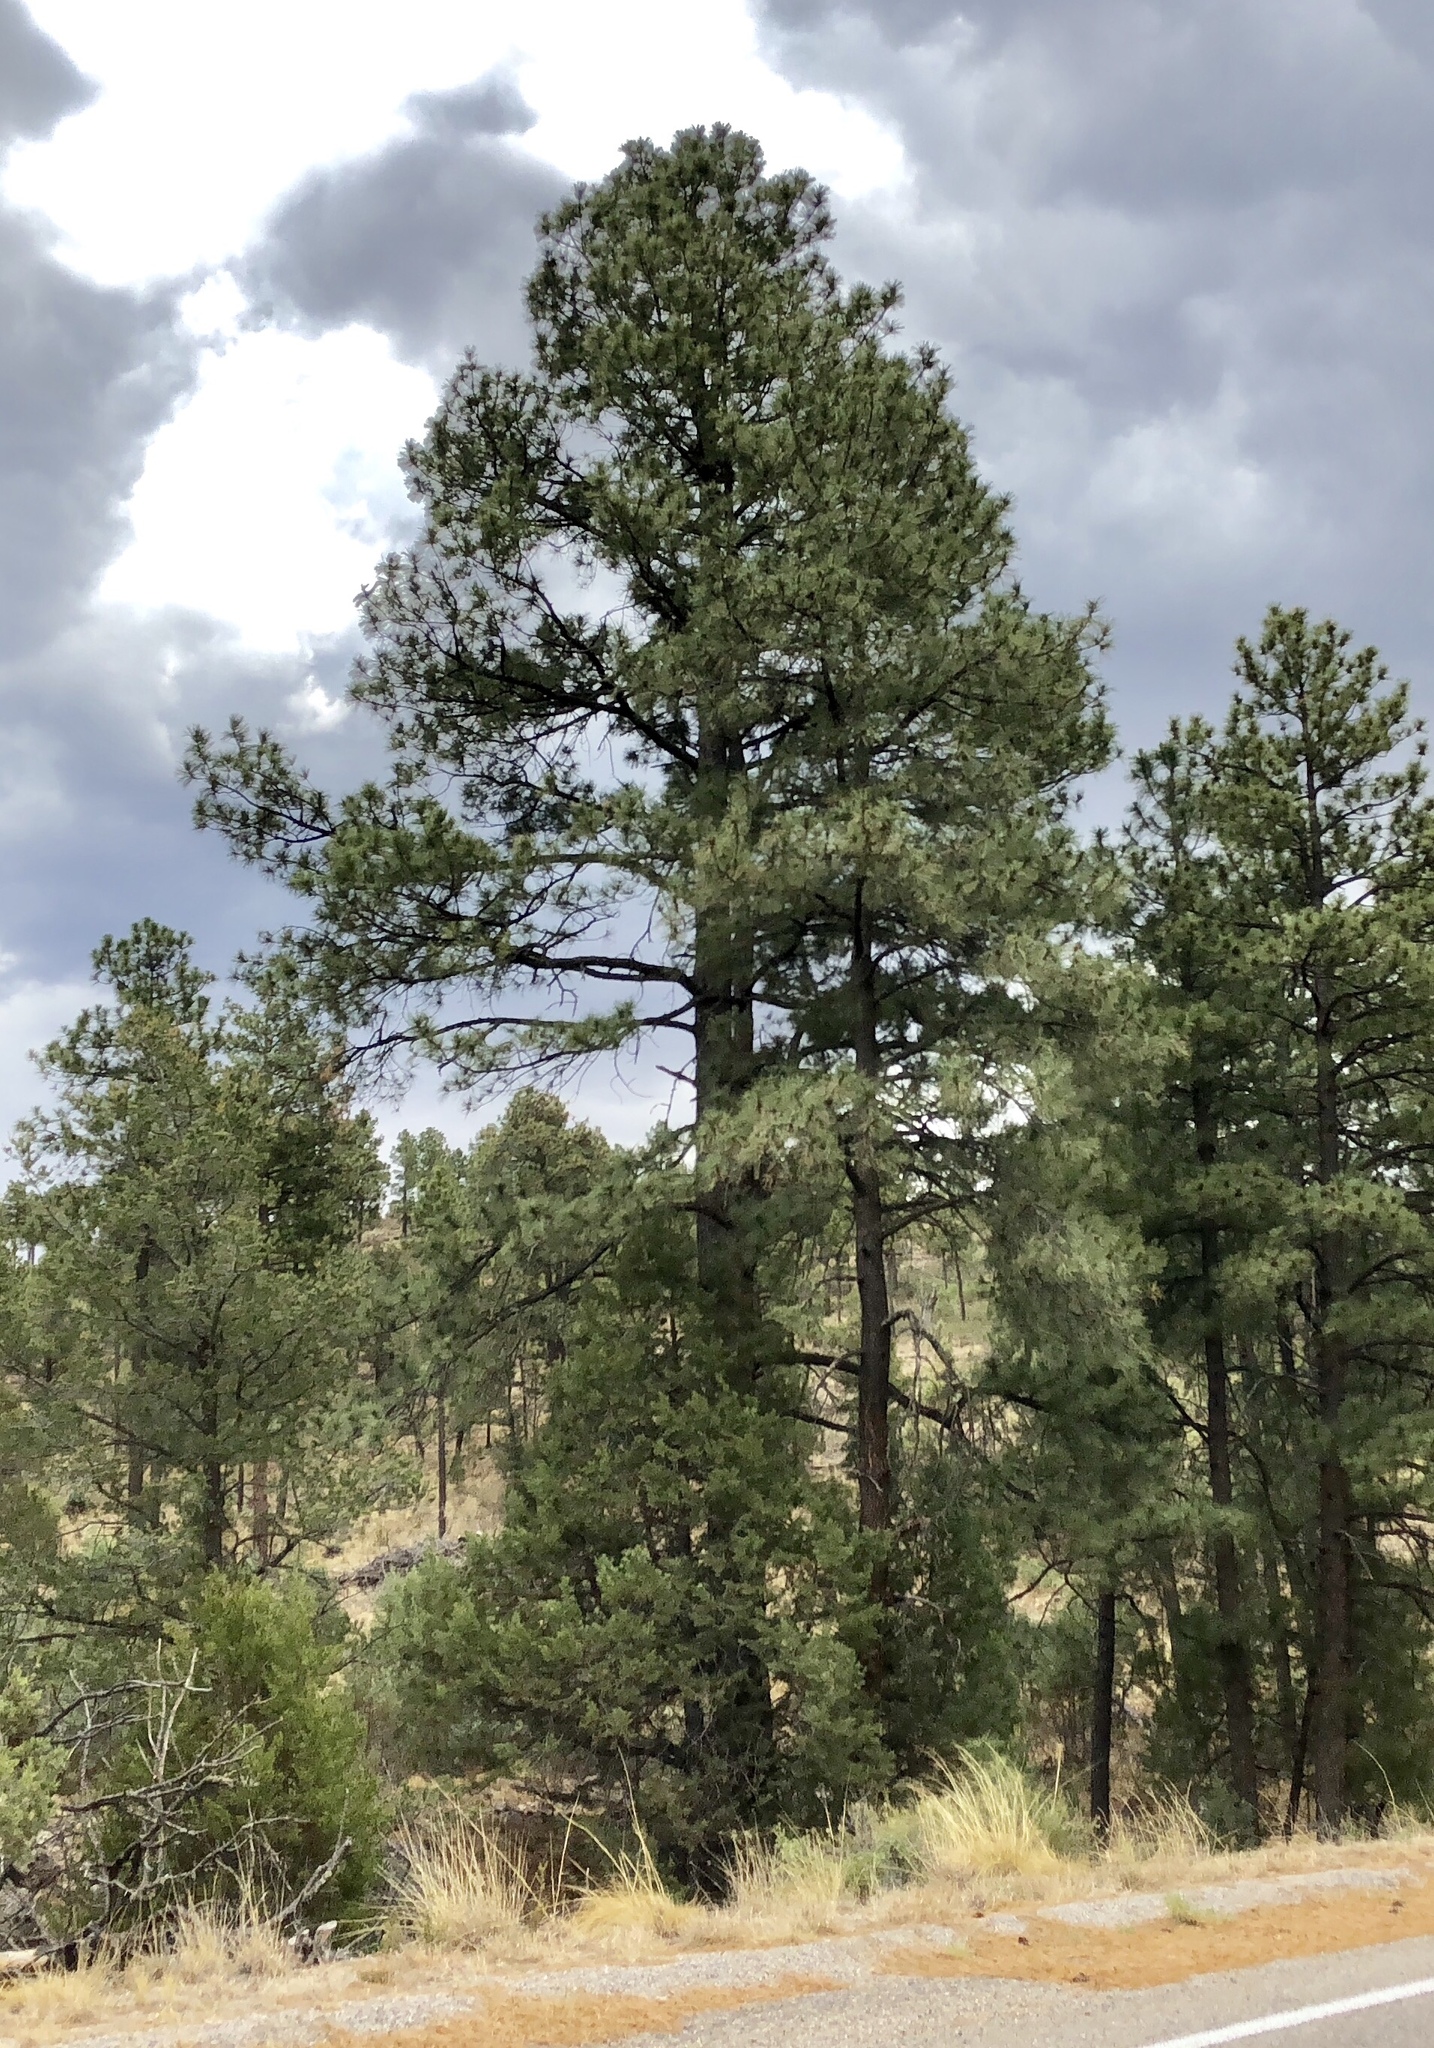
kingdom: Plantae
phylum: Tracheophyta
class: Pinopsida
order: Pinales
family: Pinaceae
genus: Pinus
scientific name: Pinus ponderosa
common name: Western yellow-pine
